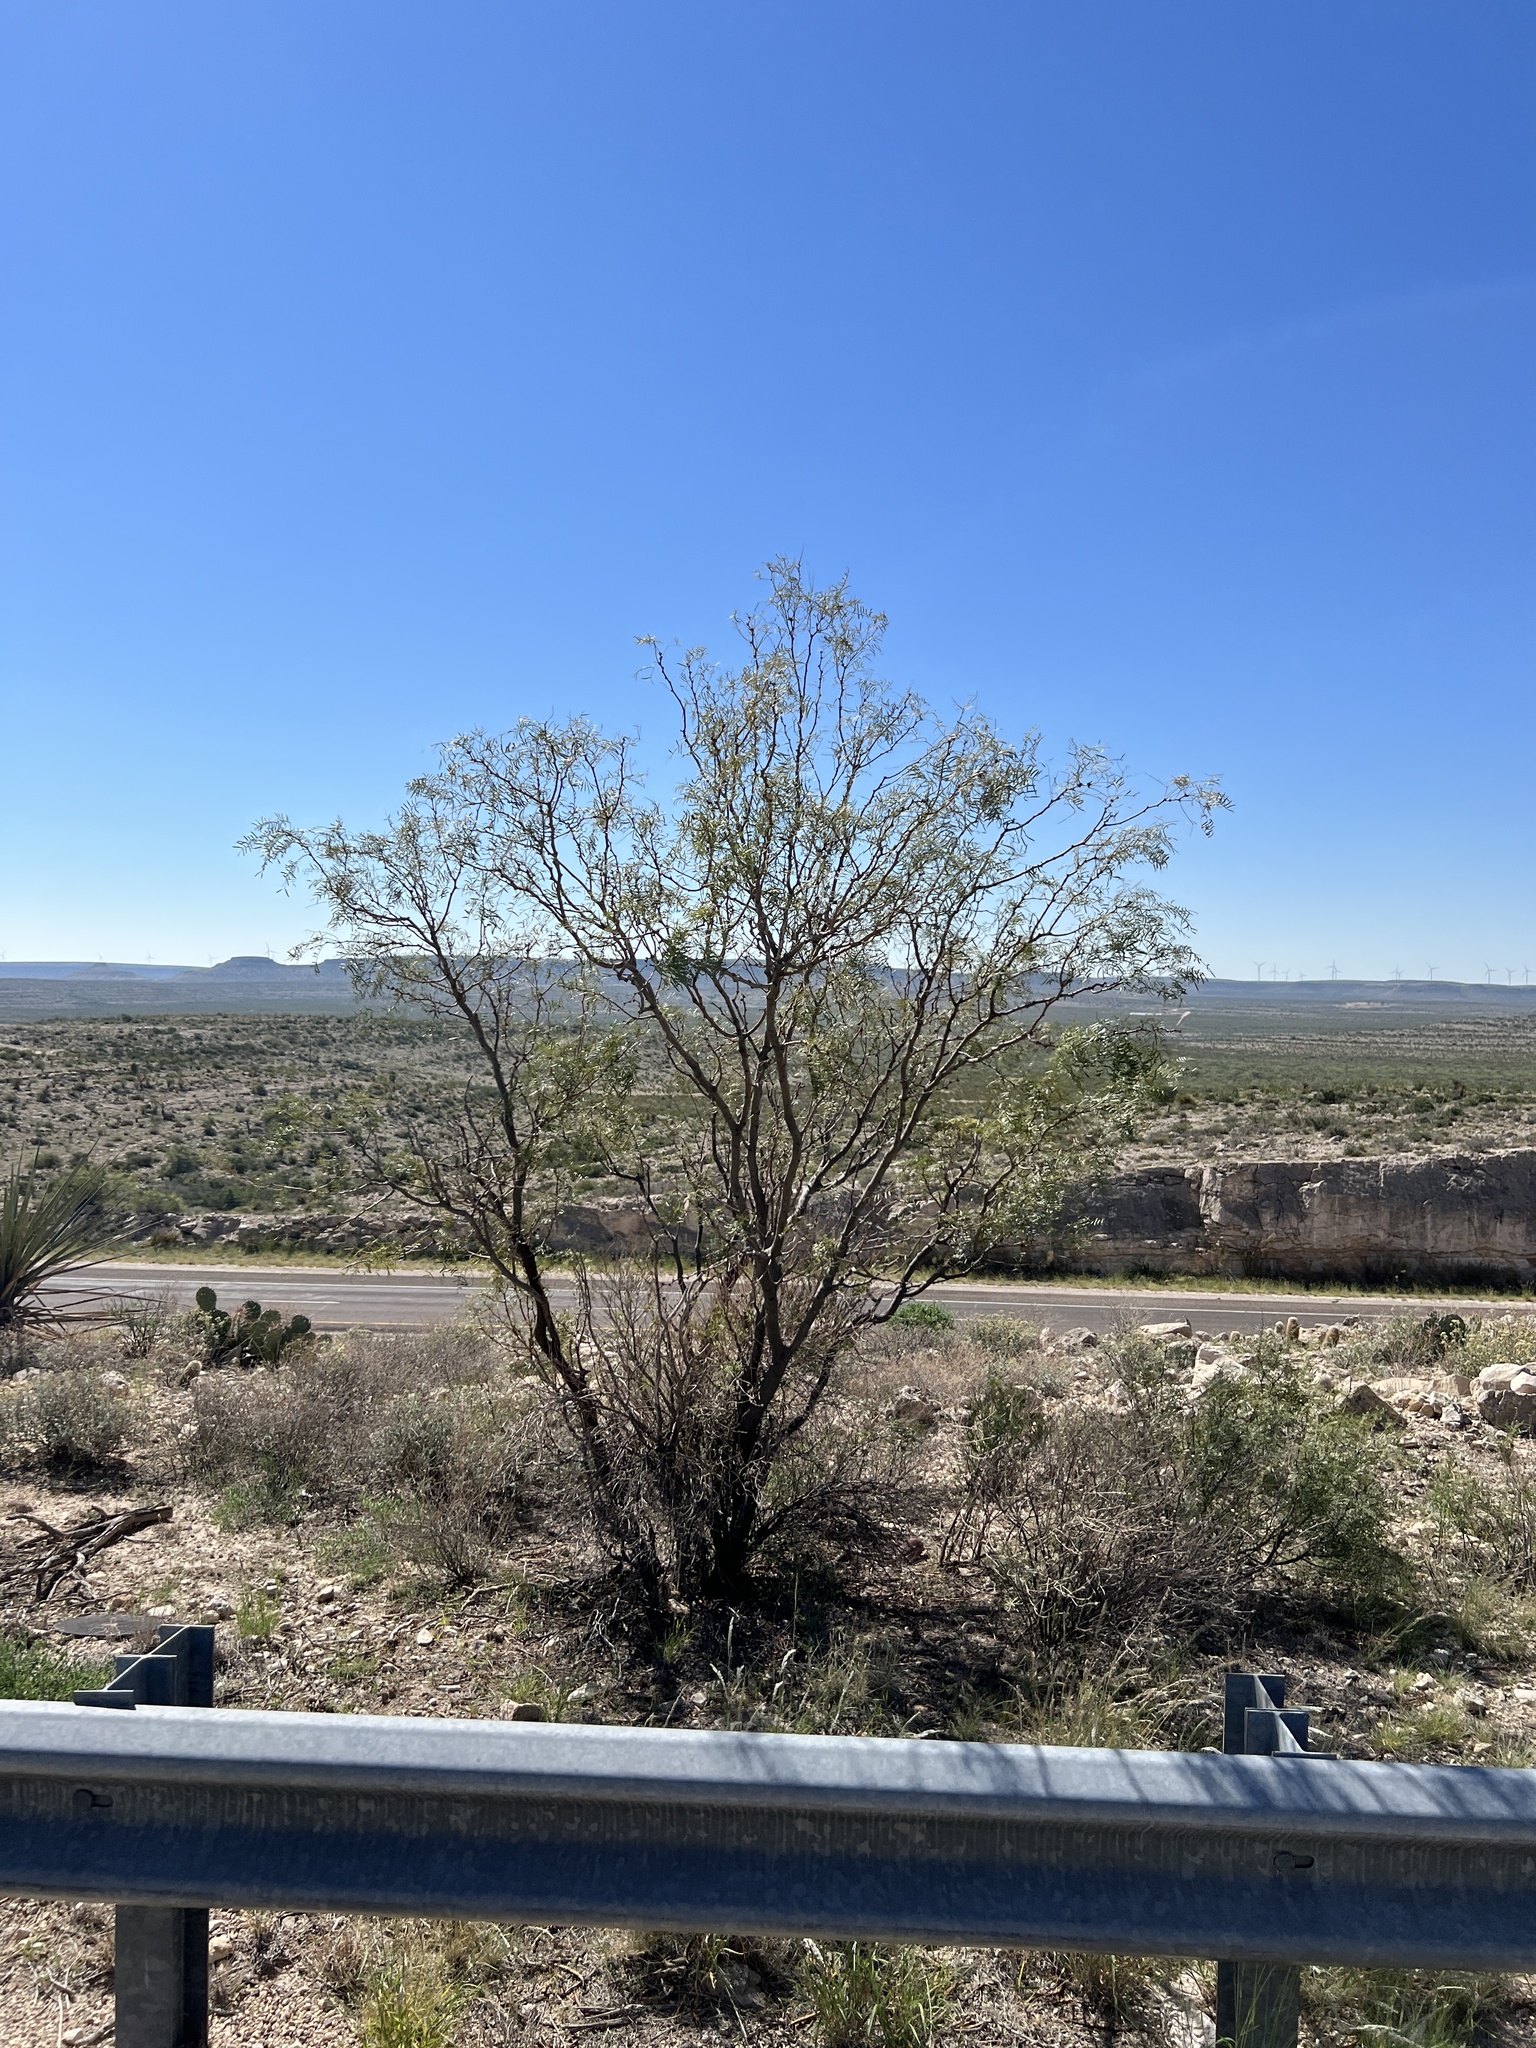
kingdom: Plantae
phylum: Tracheophyta
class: Magnoliopsida
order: Fabales
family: Fabaceae
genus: Prosopis
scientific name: Prosopis glandulosa
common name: Honey mesquite
